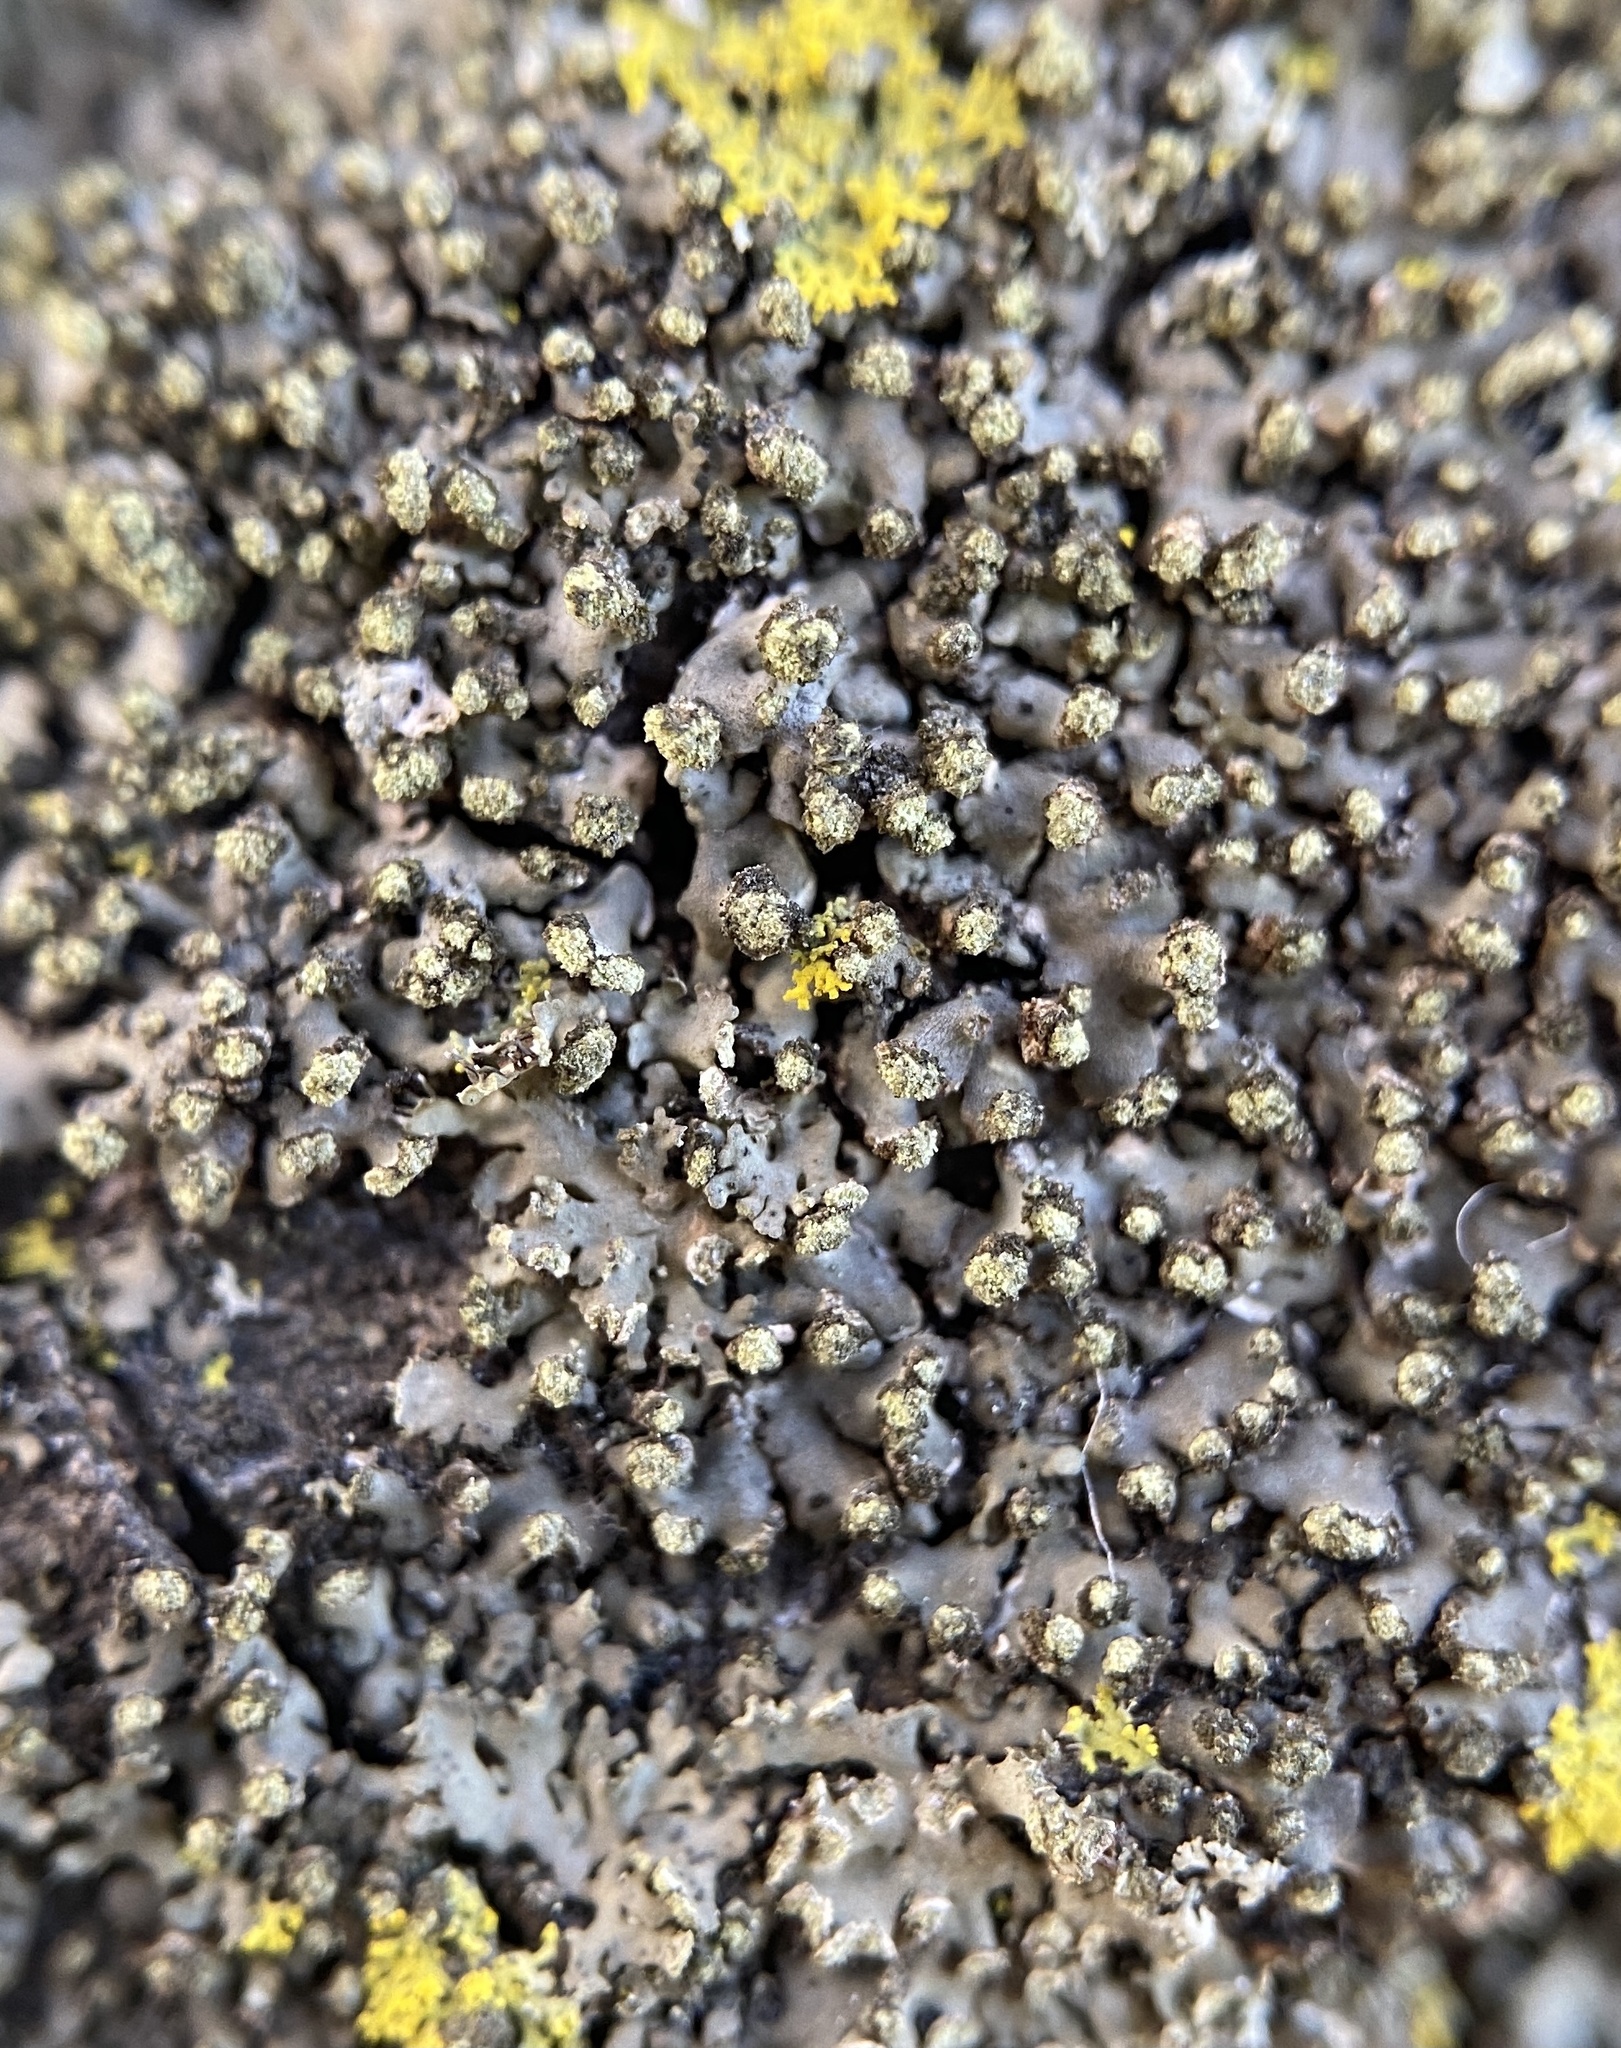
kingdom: Fungi
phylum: Ascomycota
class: Lecanoromycetes
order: Caliciales
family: Physciaceae
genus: Phaeophyscia
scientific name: Phaeophyscia pusilloides
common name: Pom-pom shadow lichen
